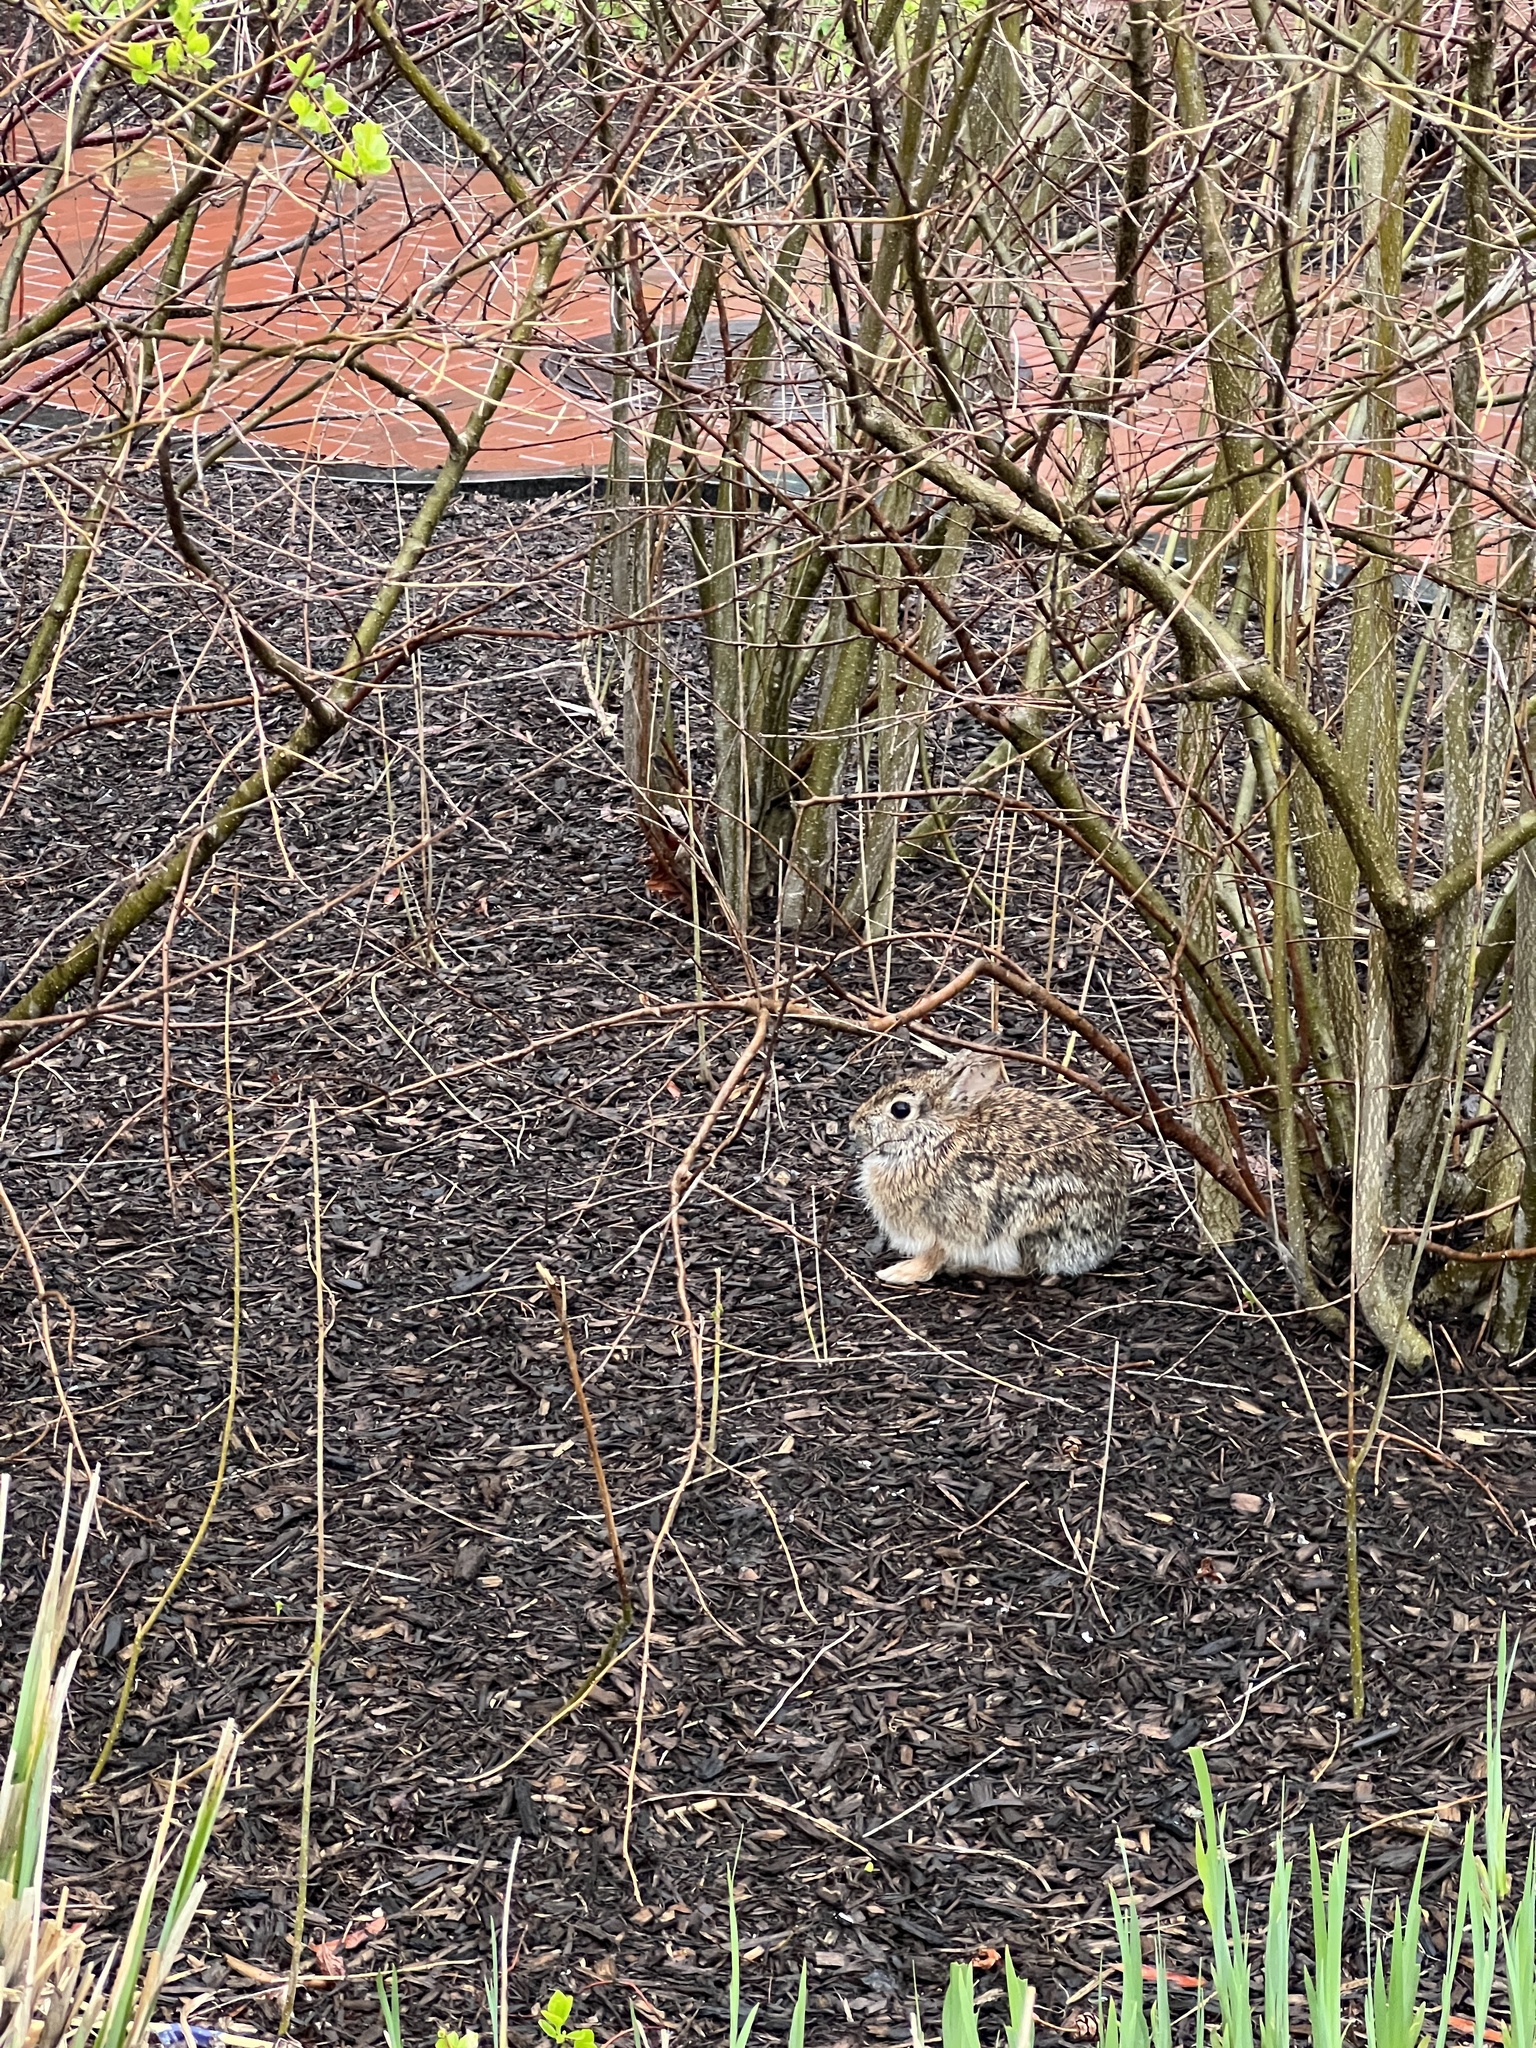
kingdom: Animalia
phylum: Chordata
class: Mammalia
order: Lagomorpha
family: Leporidae
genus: Sylvilagus
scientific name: Sylvilagus floridanus
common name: Eastern cottontail
